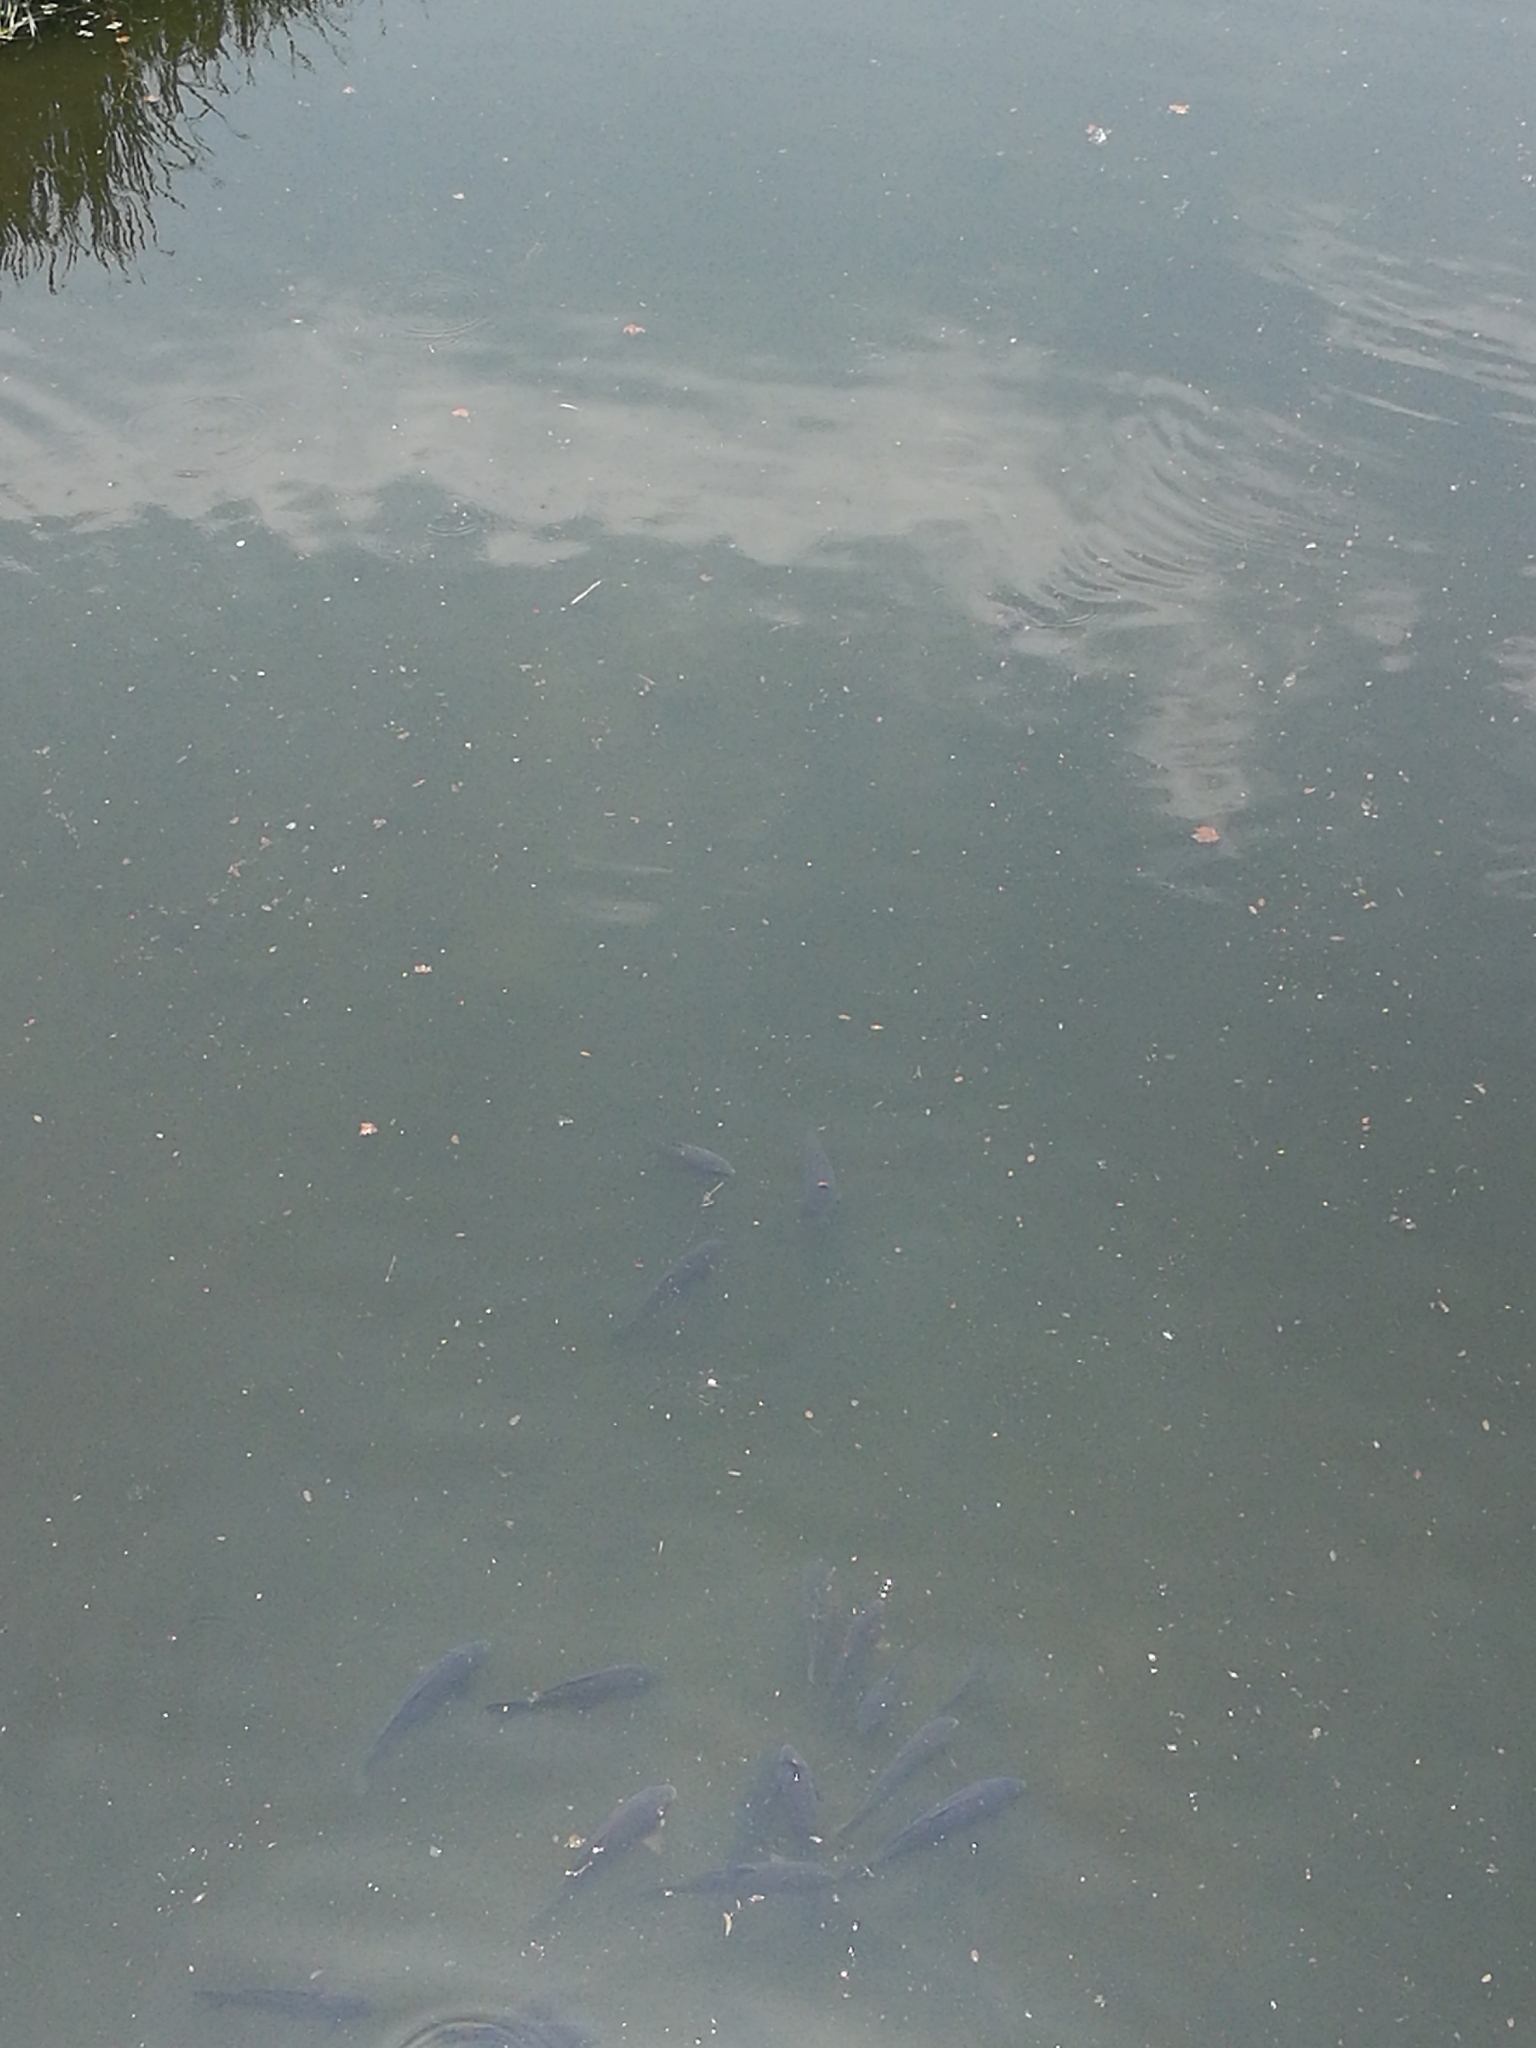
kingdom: Animalia
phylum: Chordata
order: Cypriniformes
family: Cyprinidae
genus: Cyprinus
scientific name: Cyprinus carpio
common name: Common carp
